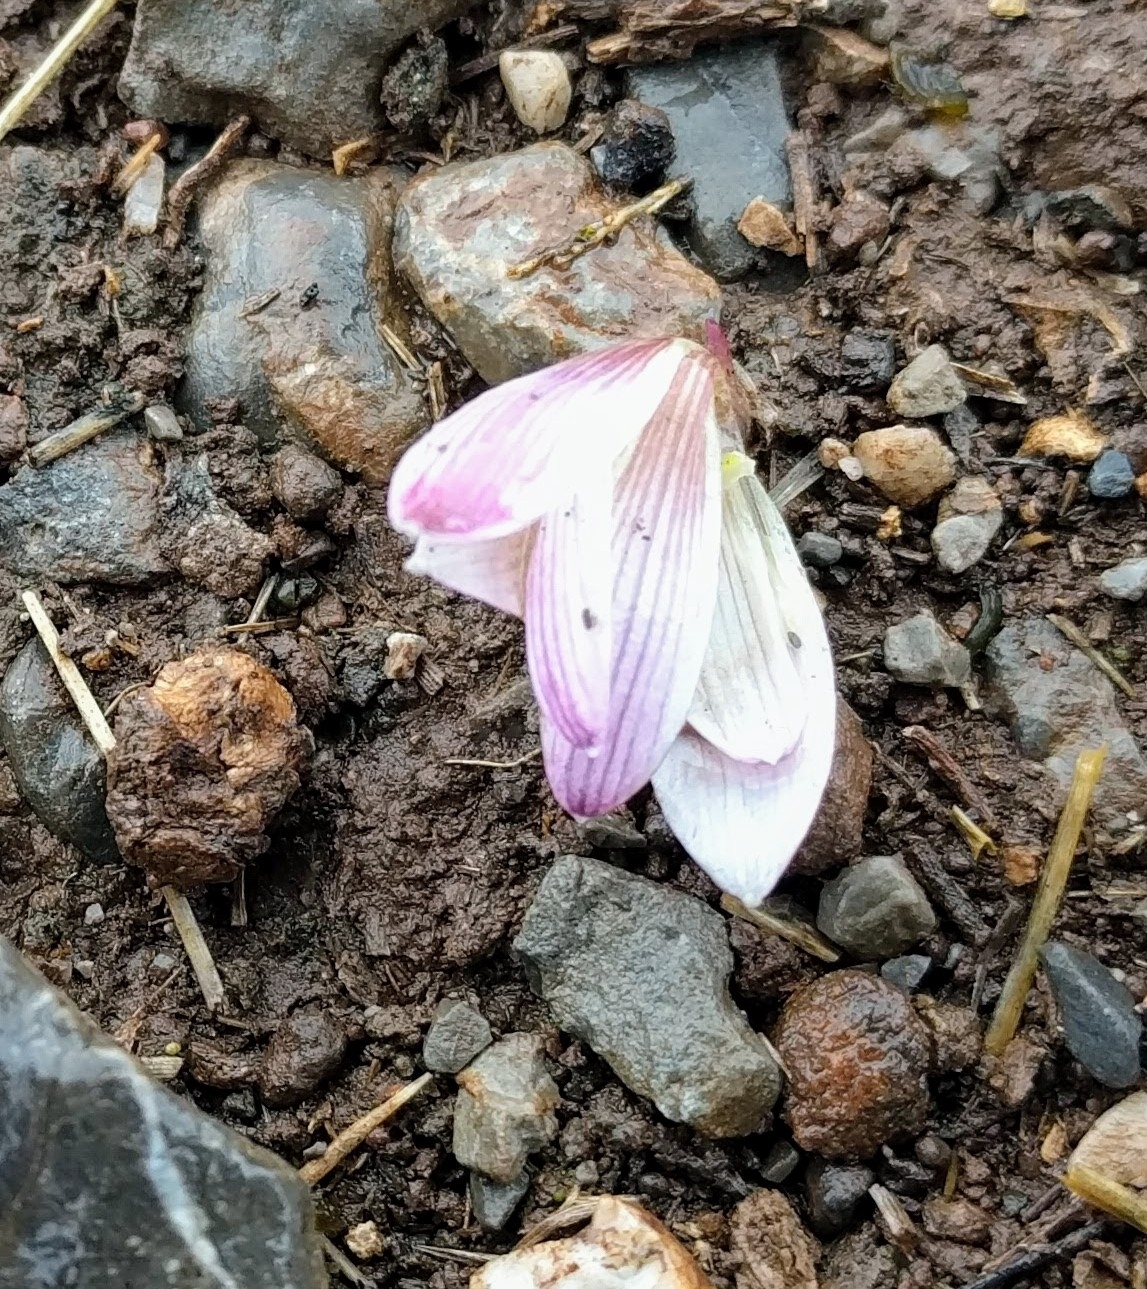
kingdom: Plantae
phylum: Tracheophyta
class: Liliopsida
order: Asparagales
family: Amaryllidaceae
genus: Zephyranthes
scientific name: Zephyranthes andina
